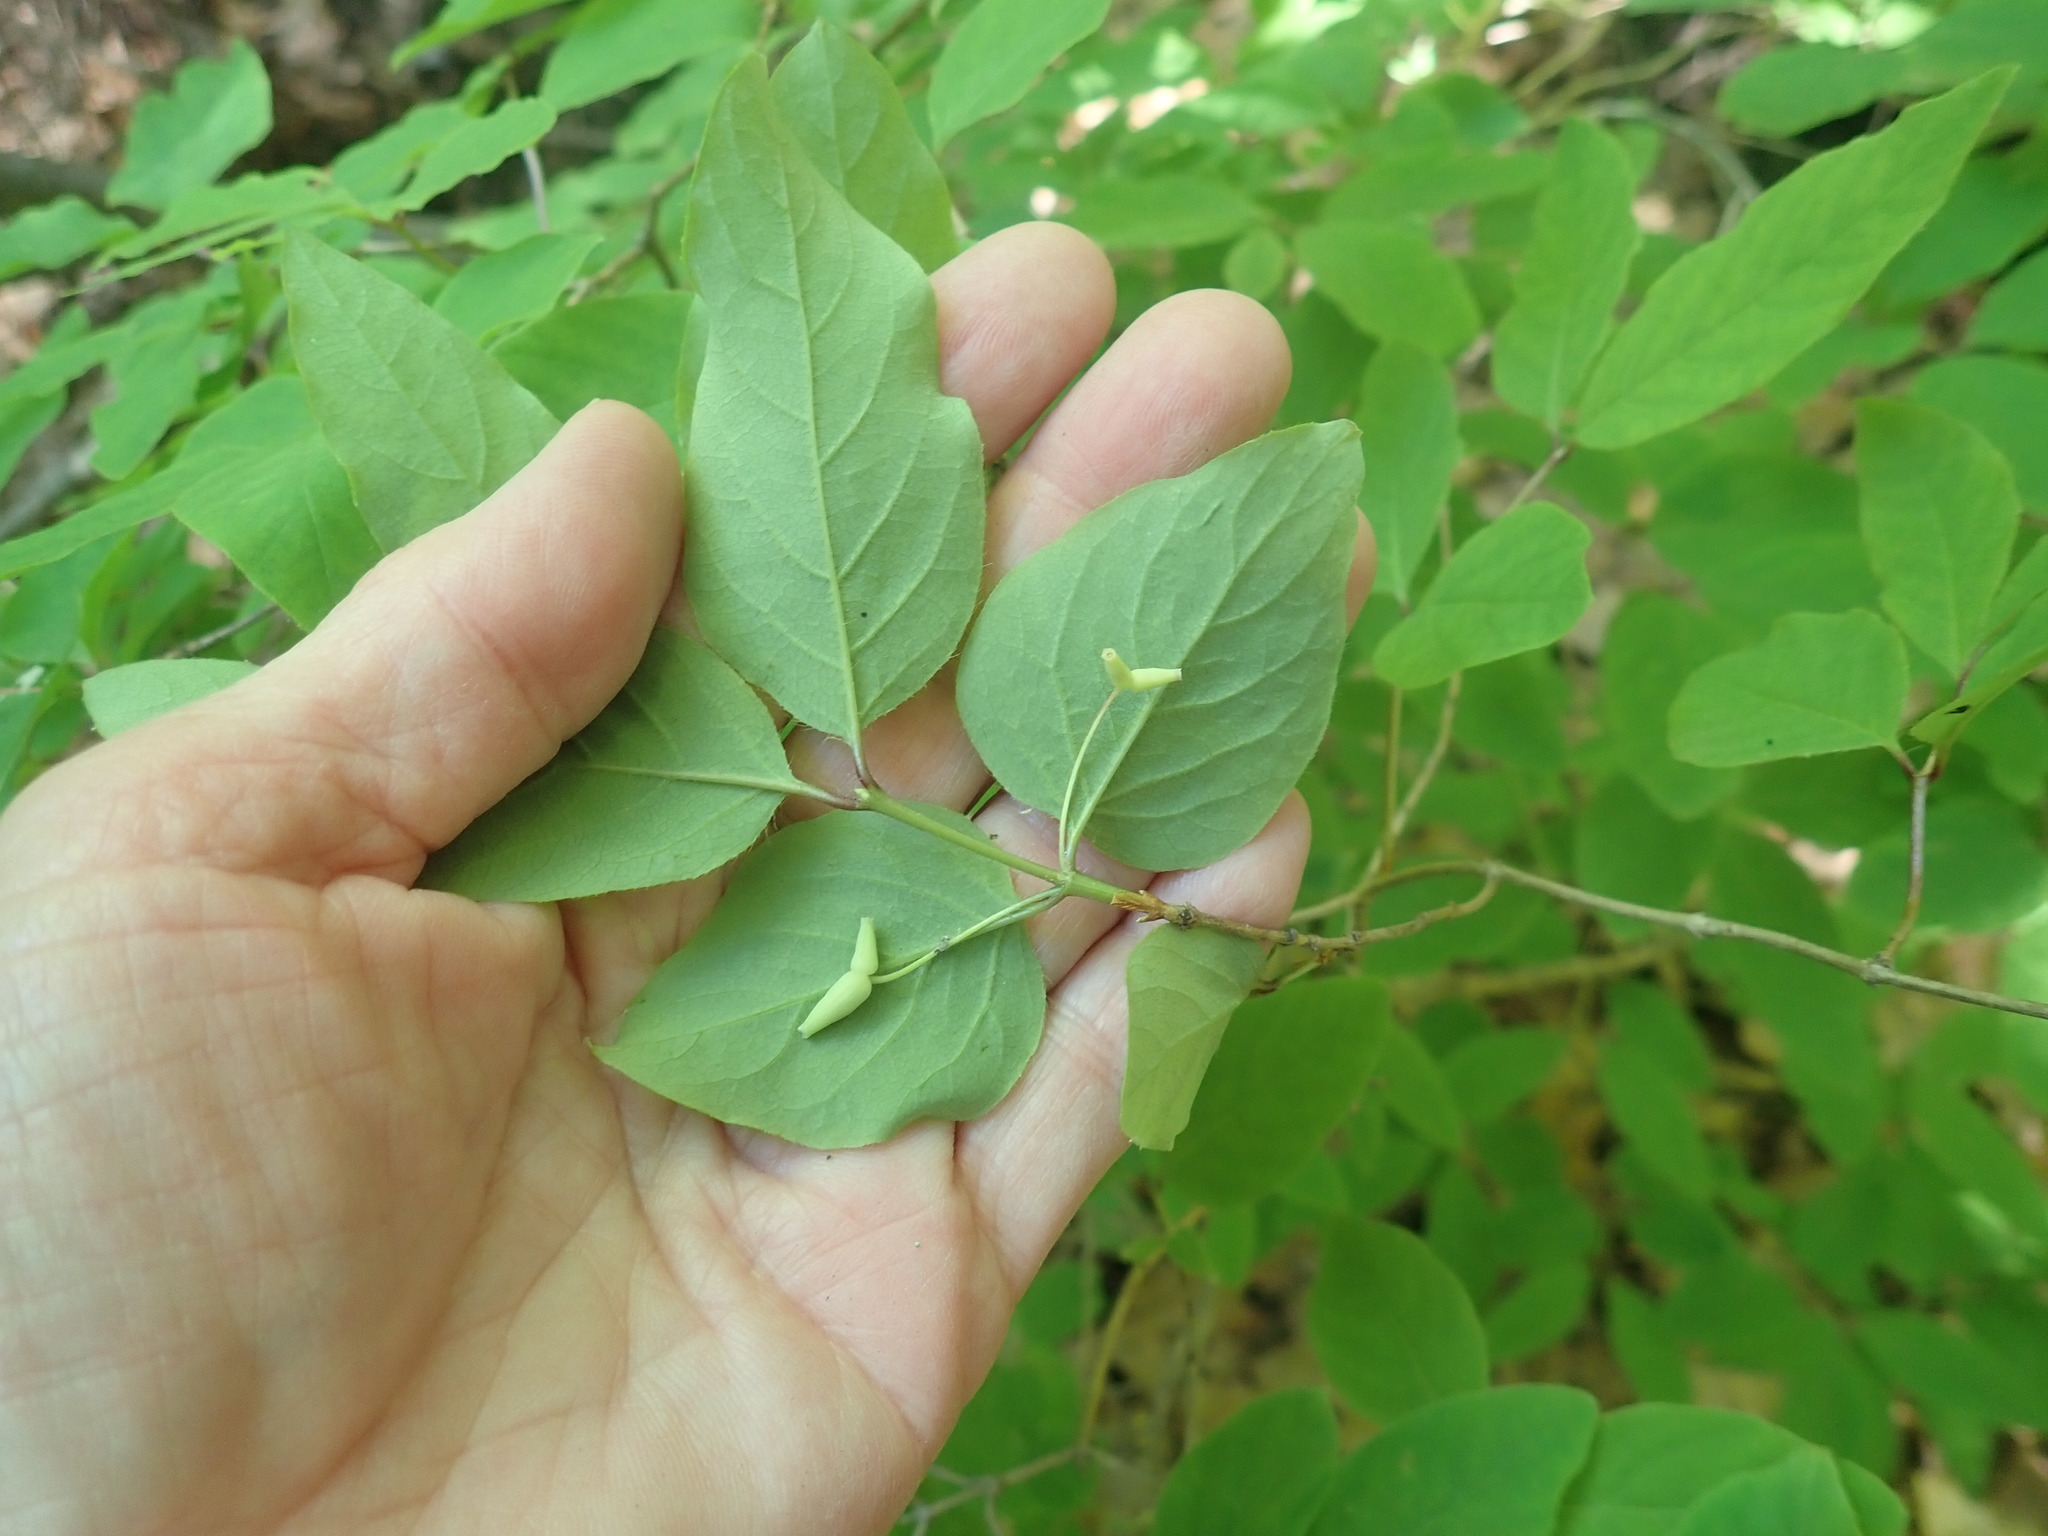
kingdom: Plantae
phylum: Tracheophyta
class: Magnoliopsida
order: Dipsacales
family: Caprifoliaceae
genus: Lonicera
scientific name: Lonicera canadensis
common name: American fly-honeysuckle
